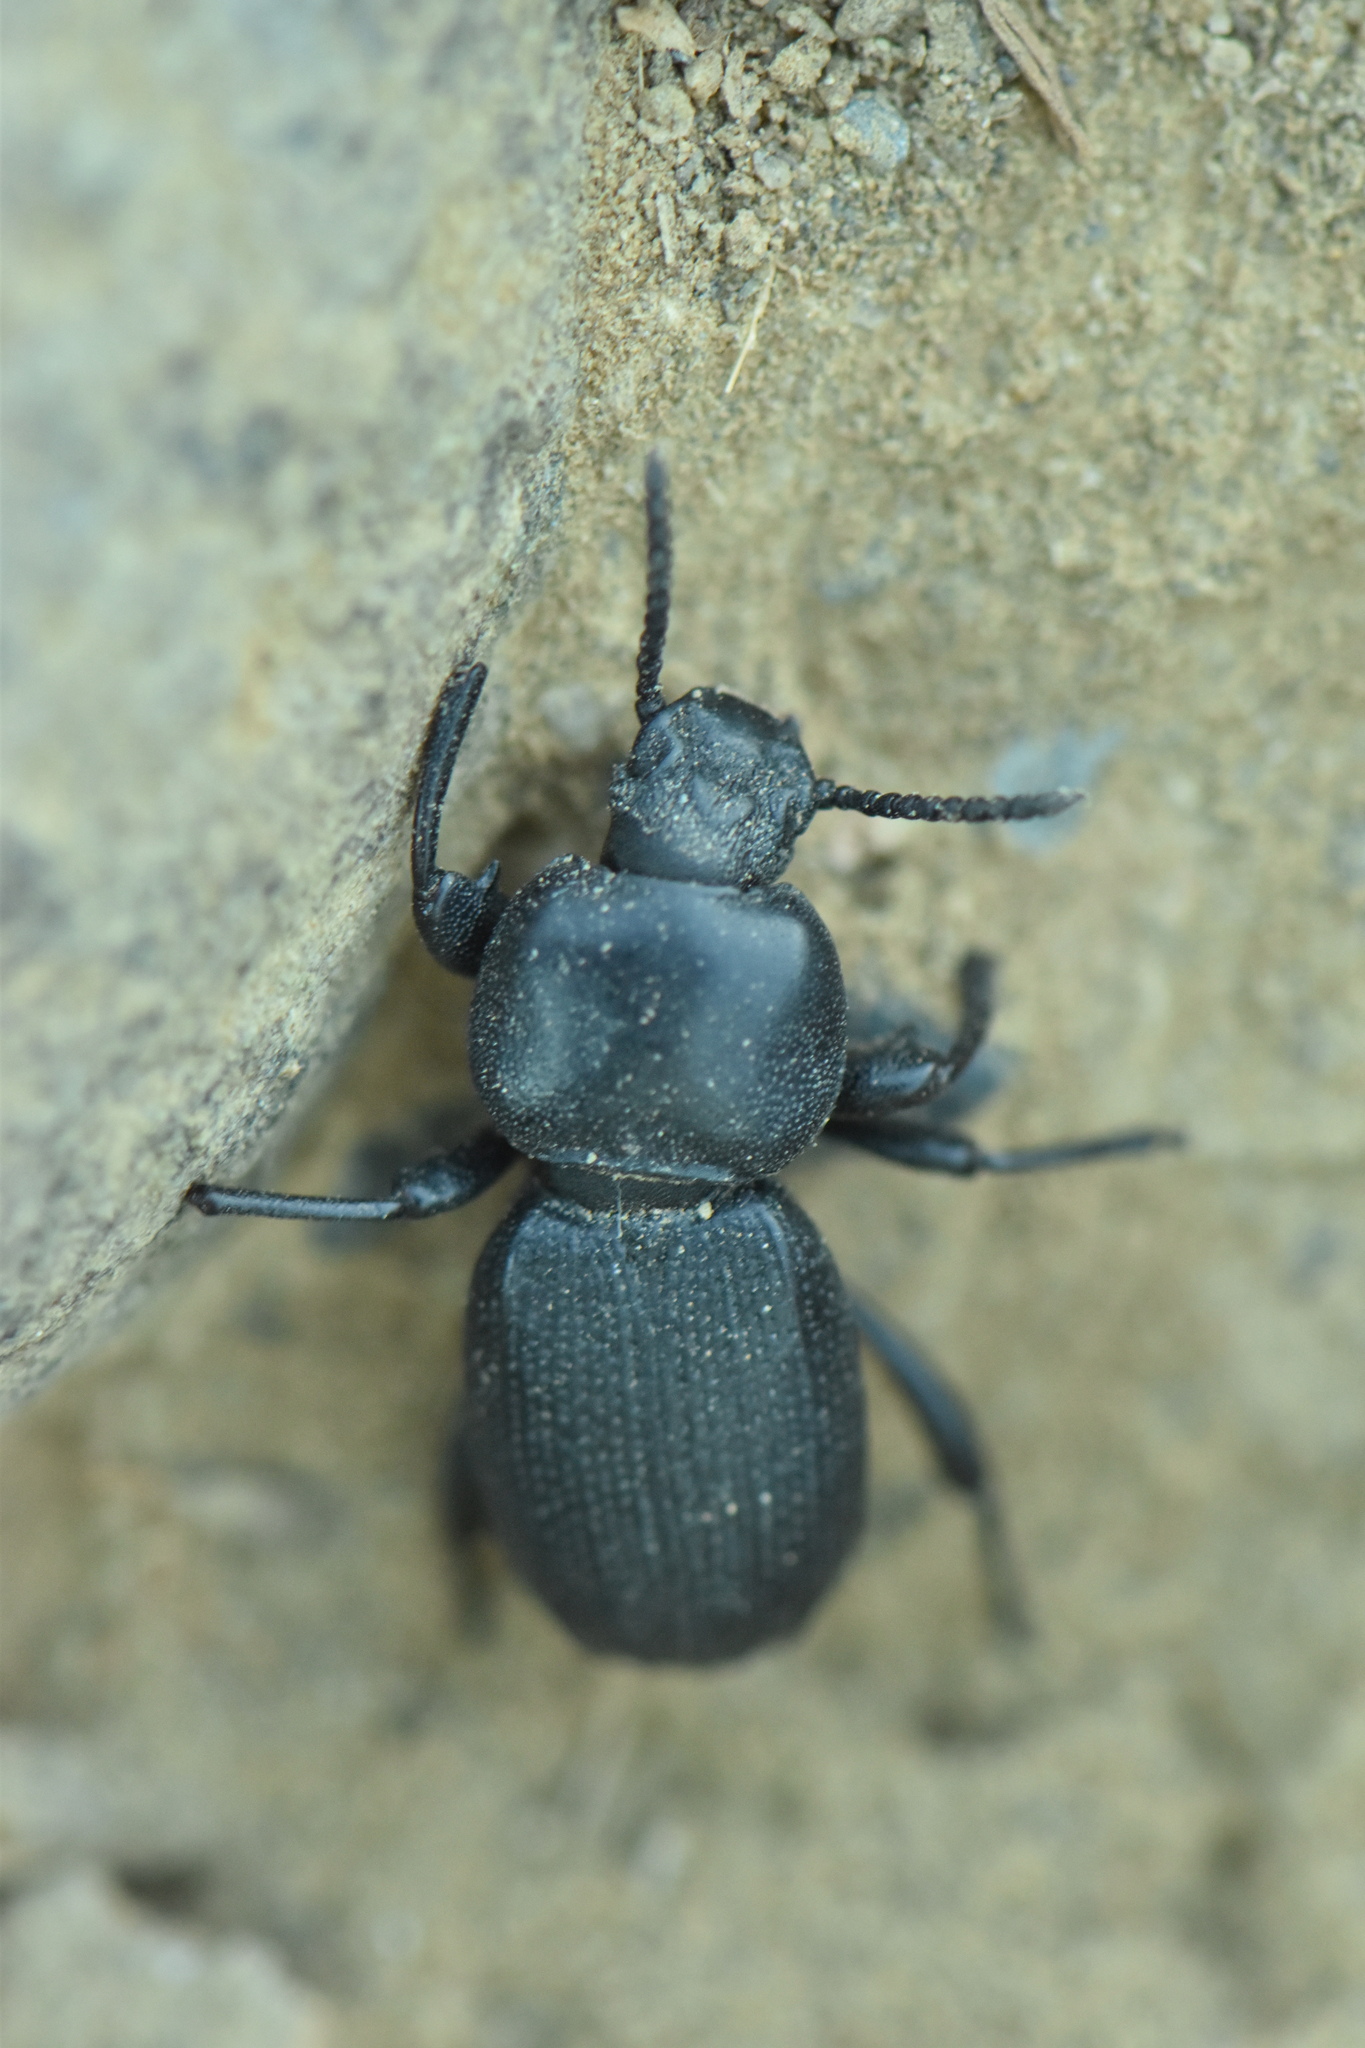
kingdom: Animalia
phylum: Arthropoda
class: Insecta
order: Coleoptera
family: Tenebrionidae
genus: Scaurus
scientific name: Scaurus uncinus
